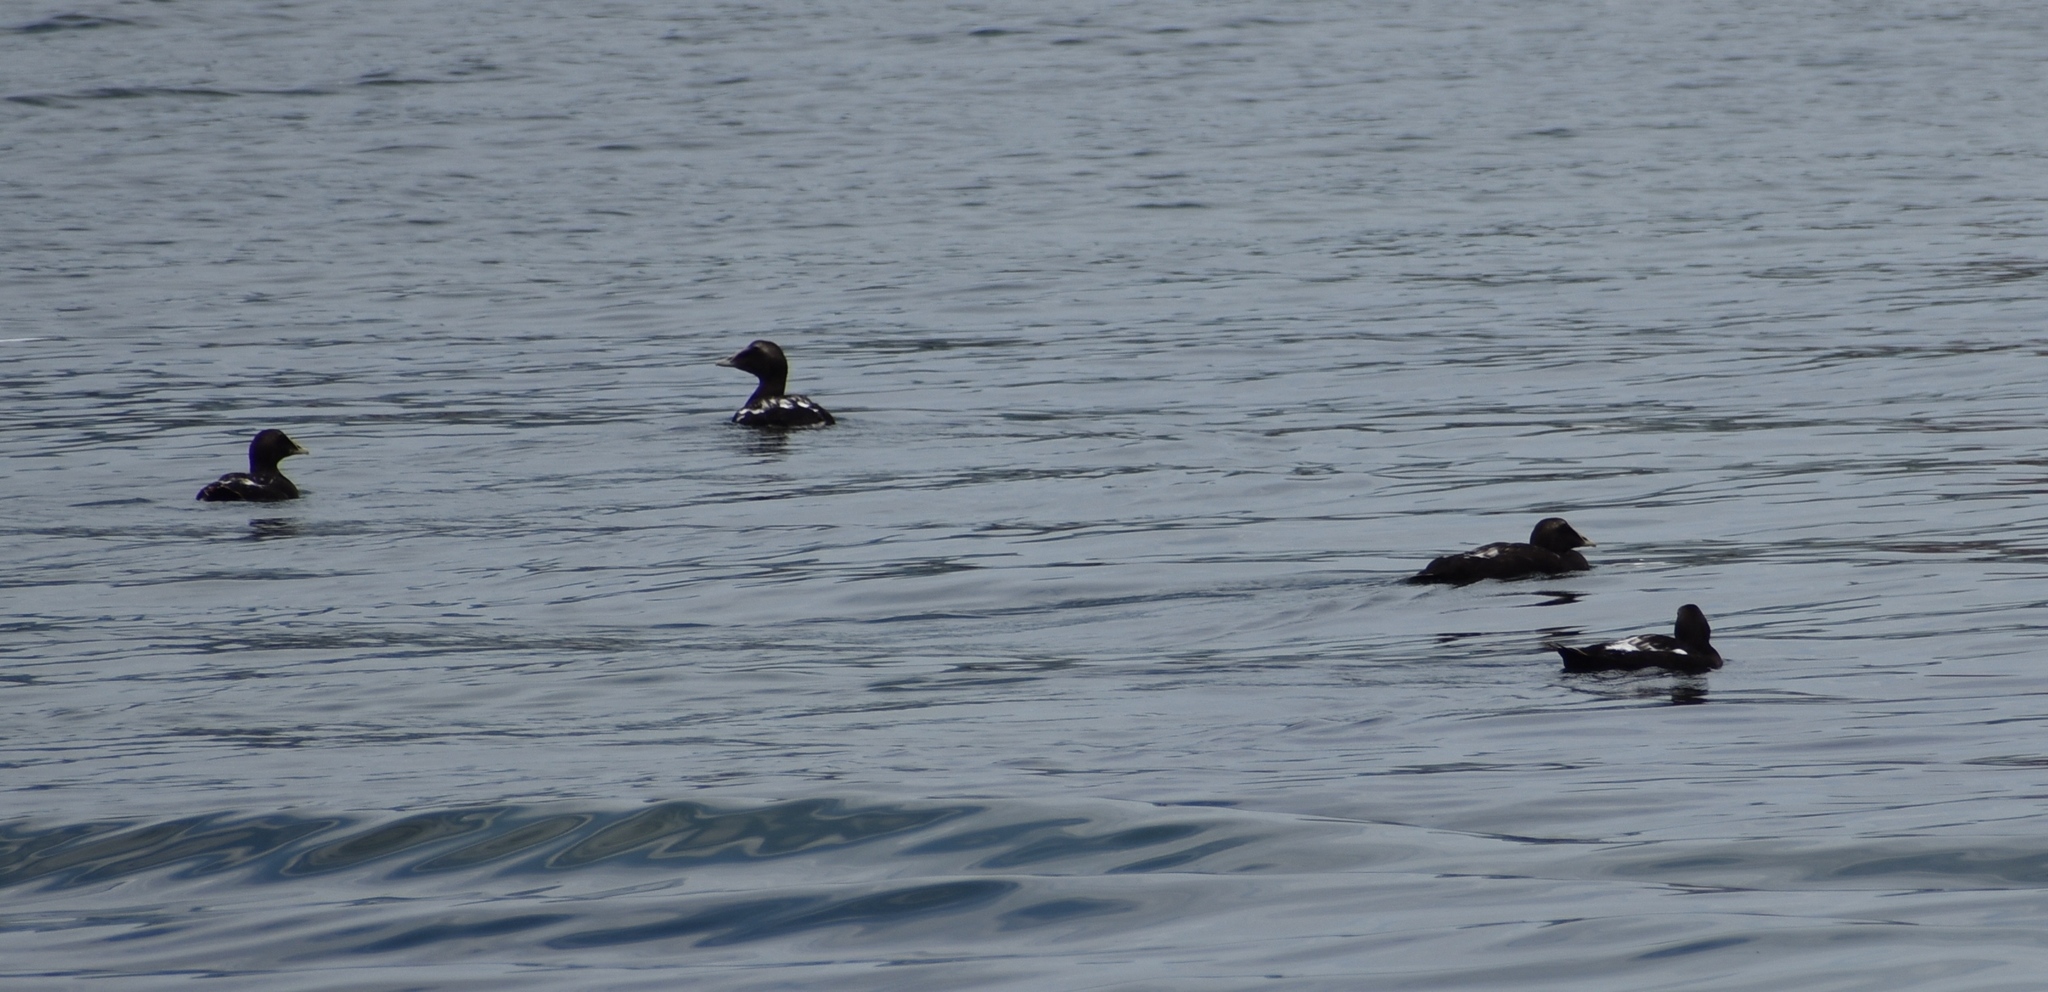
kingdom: Animalia
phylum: Chordata
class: Aves
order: Anseriformes
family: Anatidae
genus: Somateria
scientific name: Somateria mollissima
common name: Common eider
